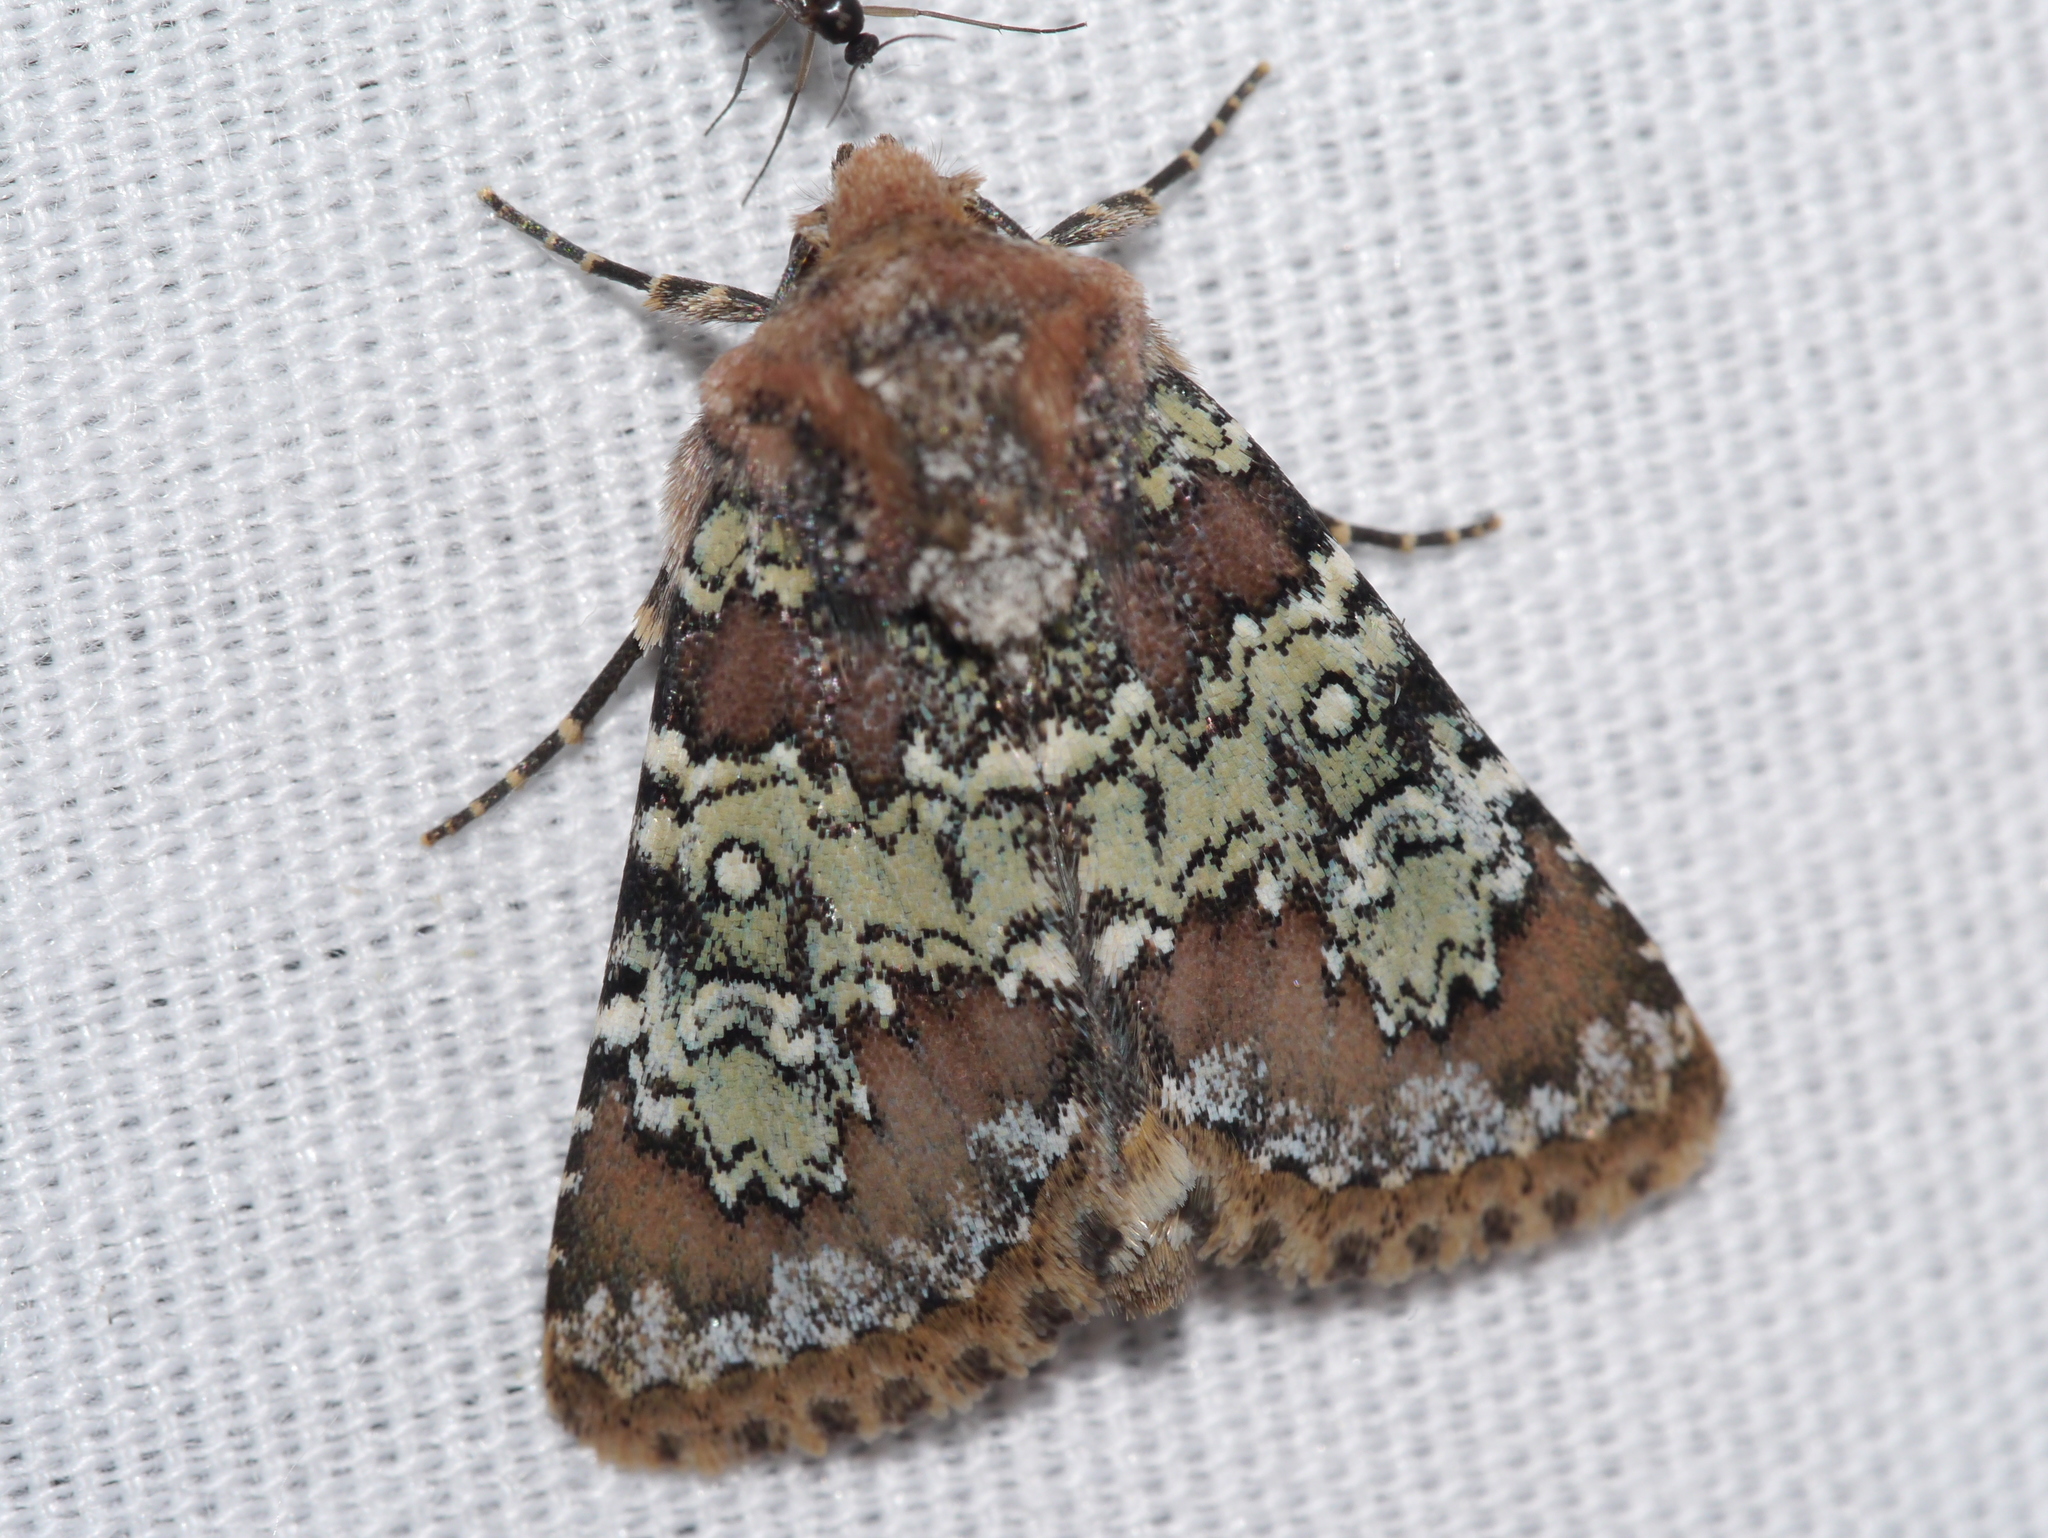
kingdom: Animalia
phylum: Arthropoda
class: Insecta
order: Lepidoptera
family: Noctuidae
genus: Hemibryomima
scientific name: Hemibryomima chryselectra
